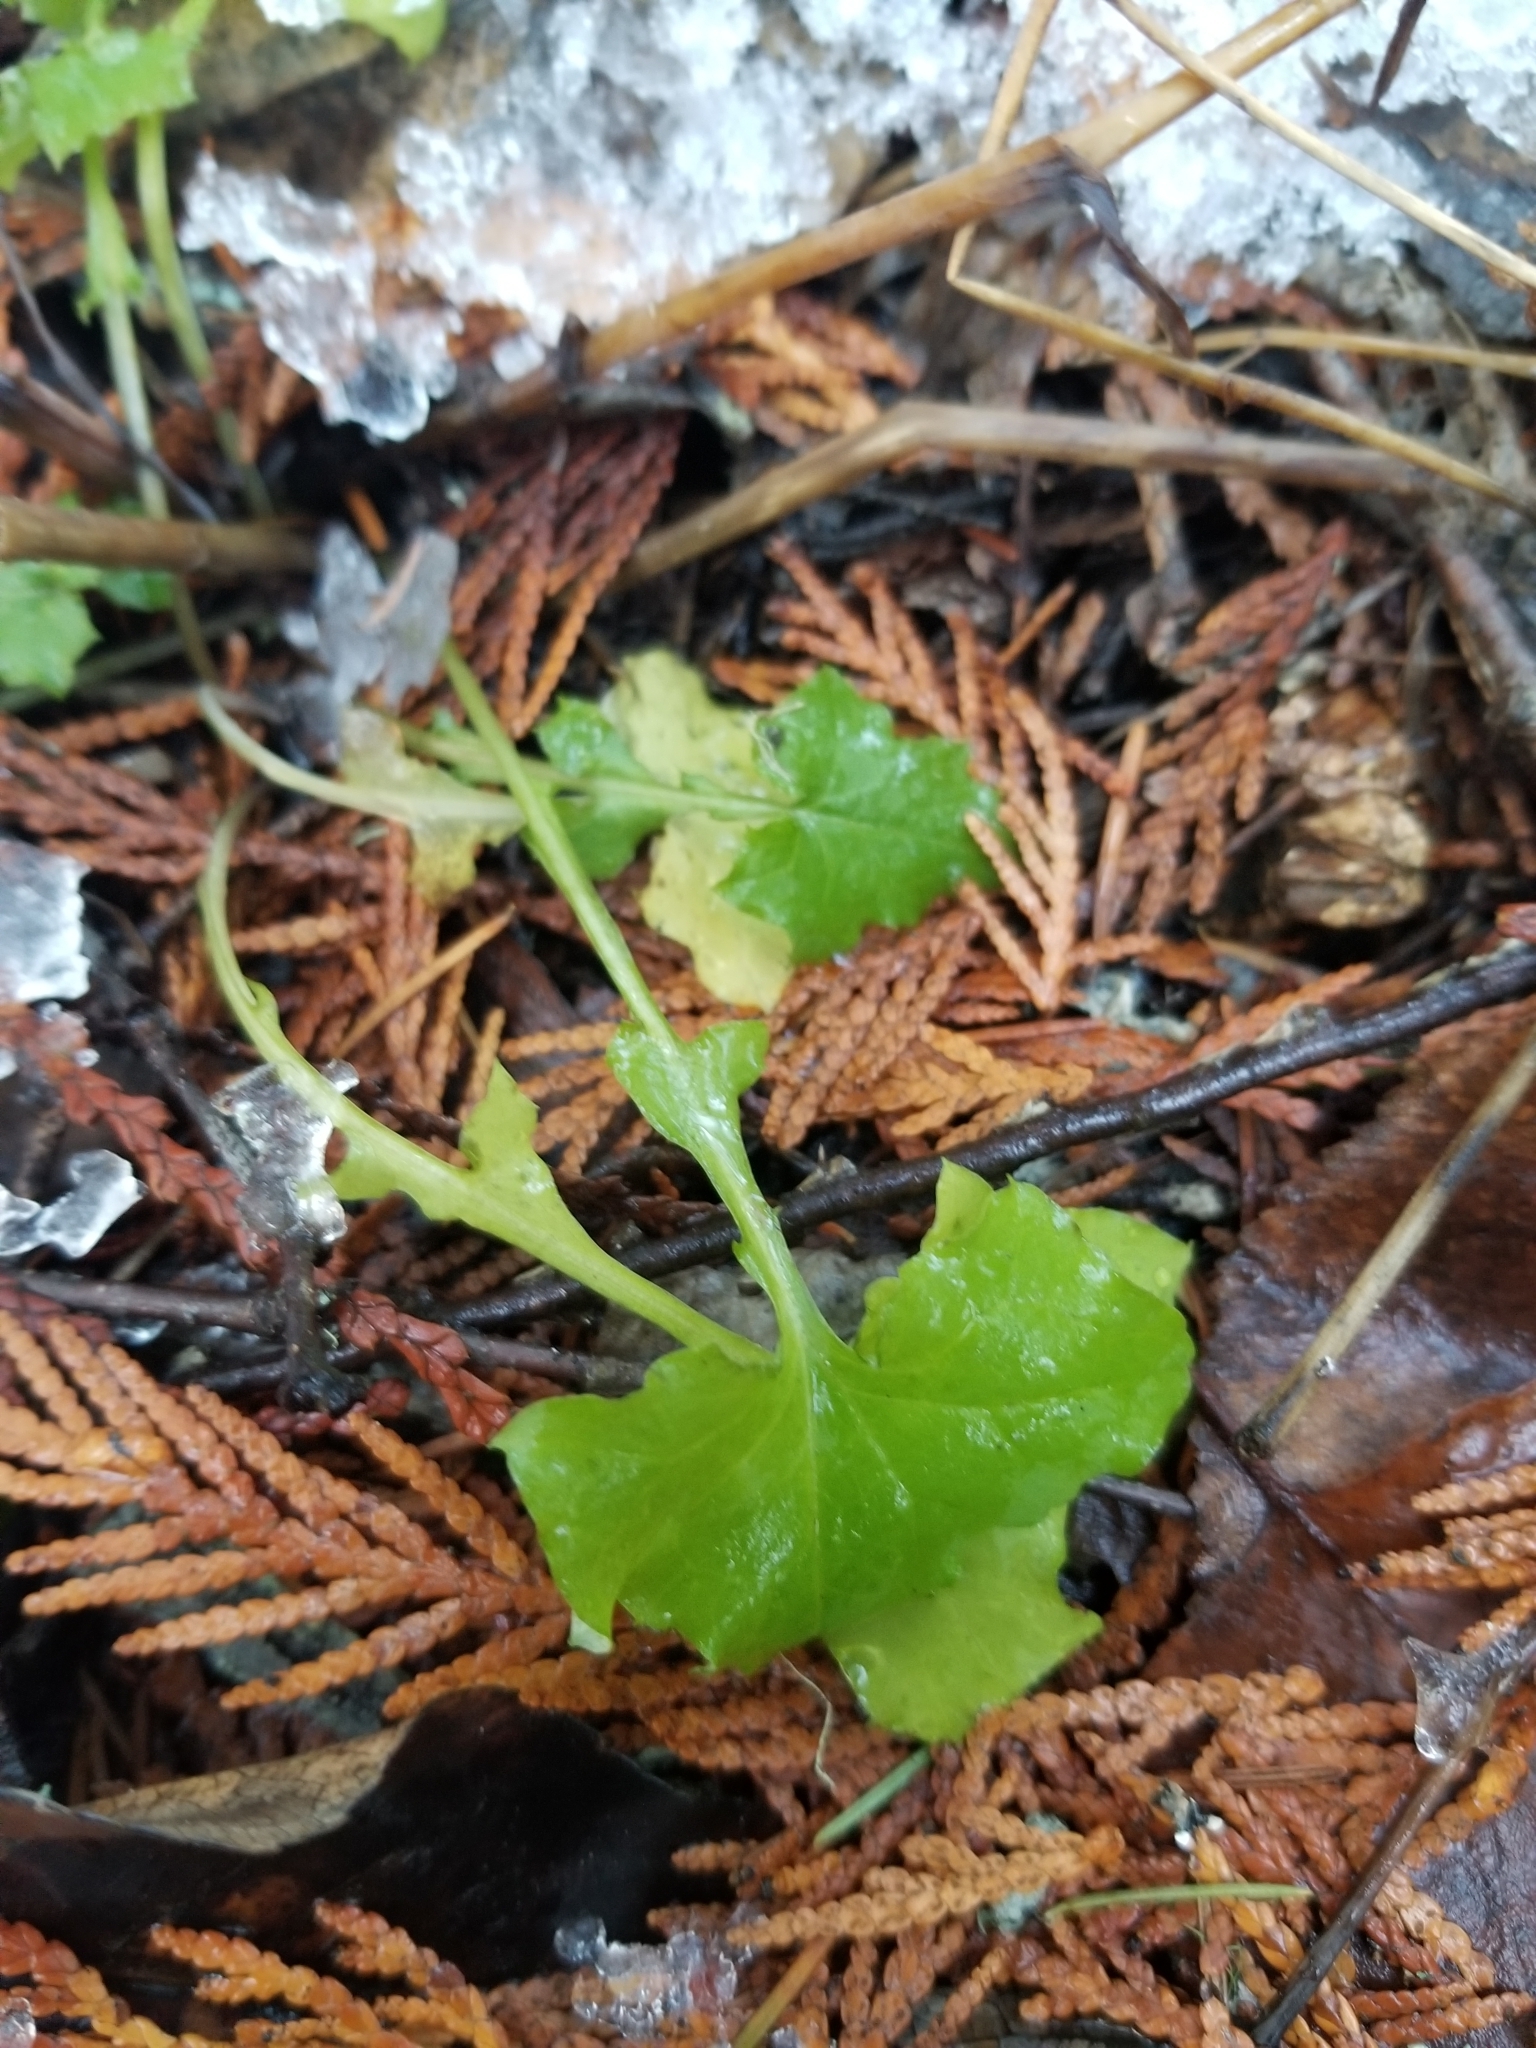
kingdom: Plantae
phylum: Tracheophyta
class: Magnoliopsida
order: Asterales
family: Asteraceae
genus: Mycelis
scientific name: Mycelis muralis
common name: Wall lettuce
